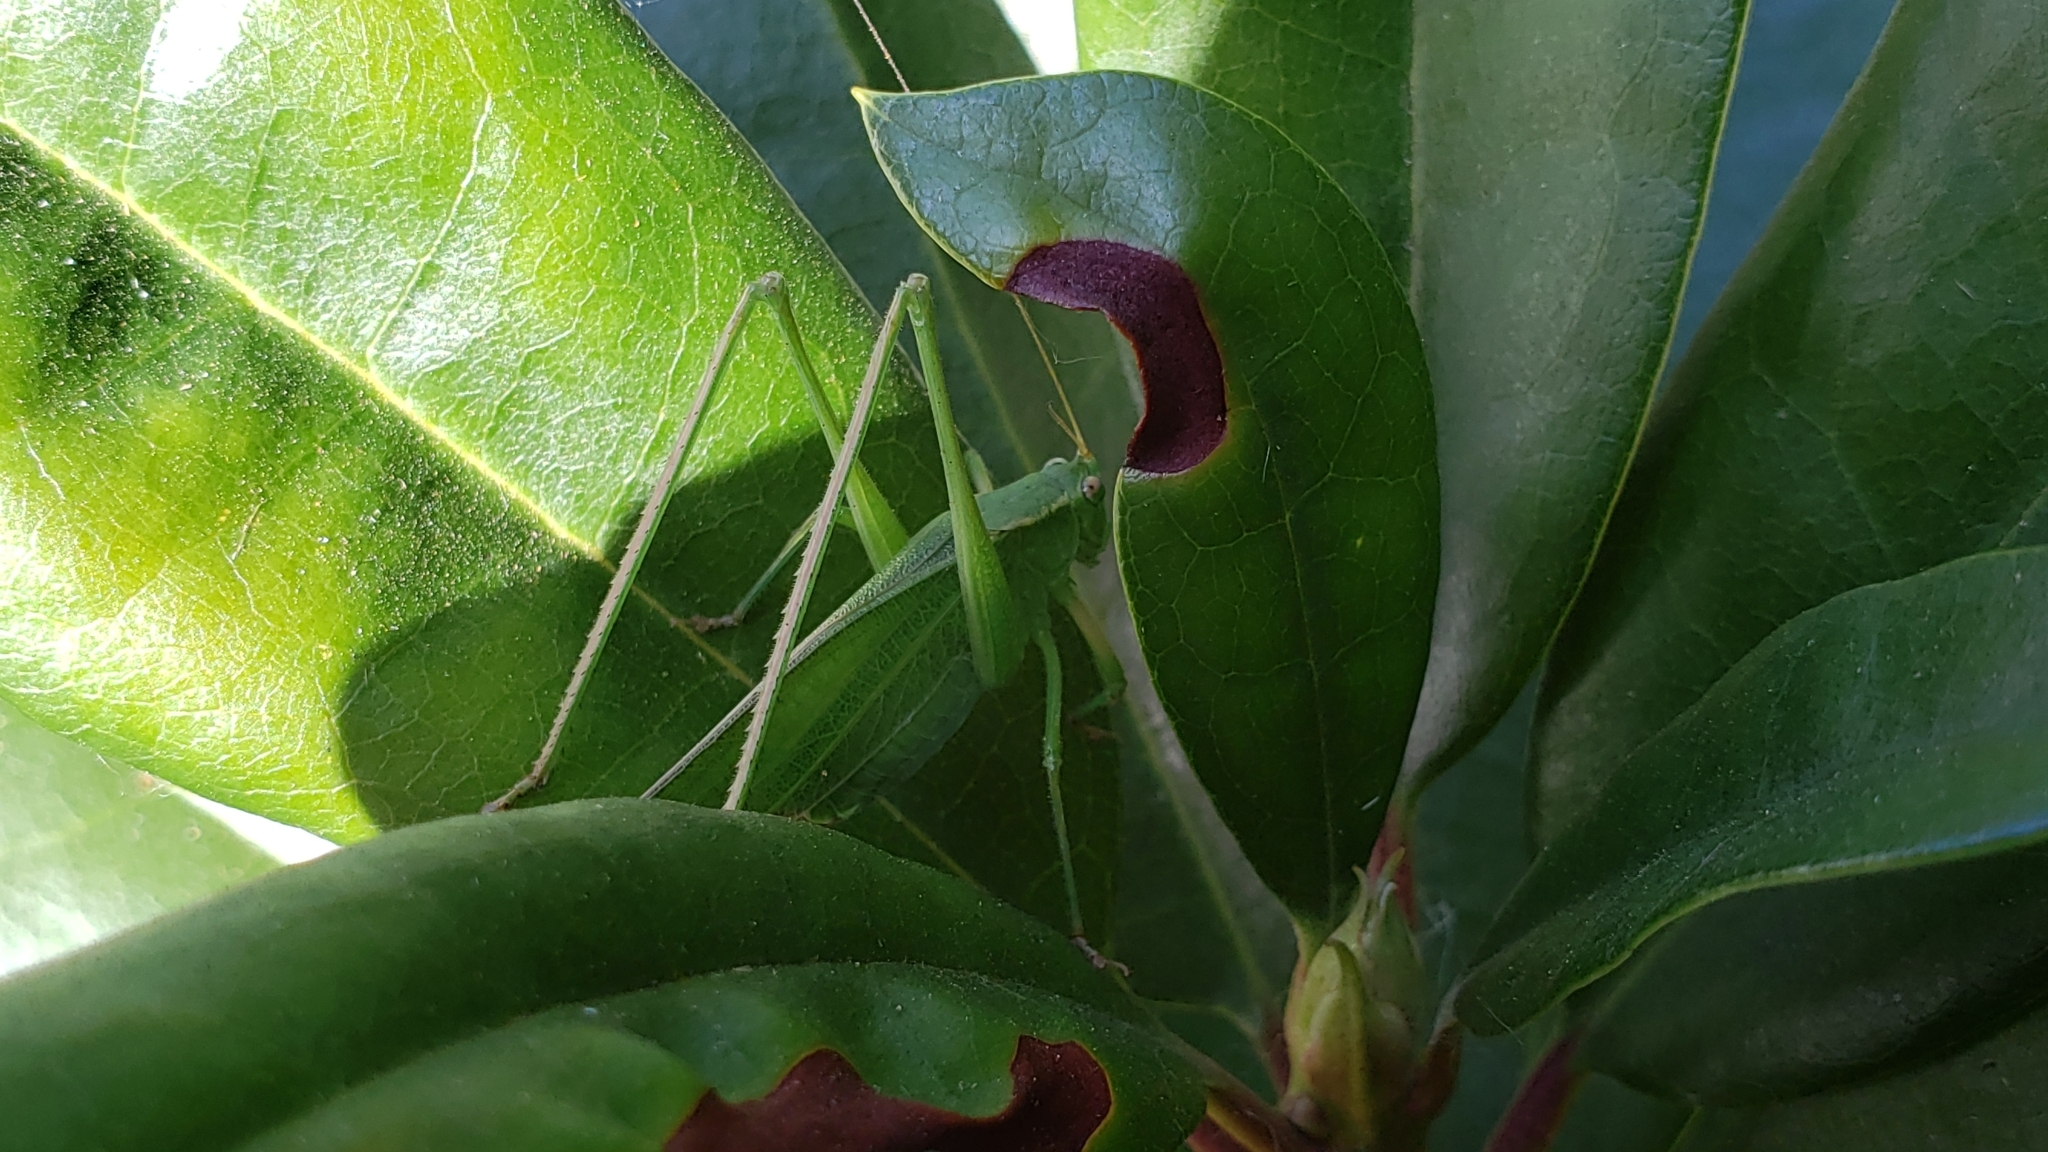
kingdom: Animalia
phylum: Arthropoda
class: Insecta
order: Orthoptera
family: Tettigoniidae
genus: Scudderia
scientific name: Scudderia furcata
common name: Fork-tailed bush katydid
